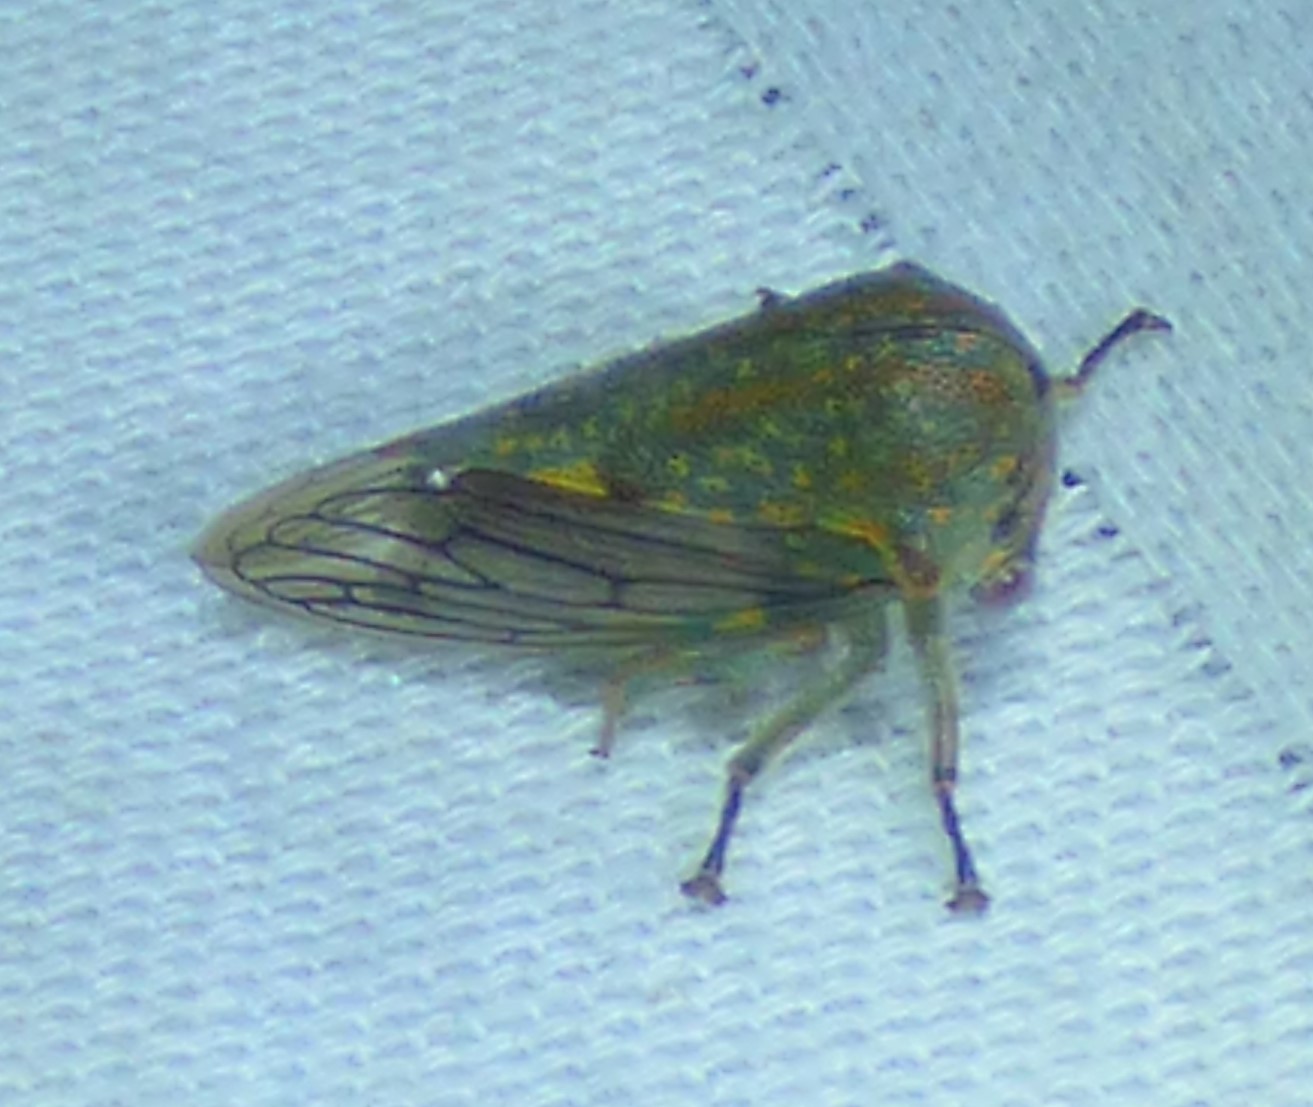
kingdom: Animalia
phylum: Arthropoda
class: Insecta
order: Hemiptera
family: Membracidae
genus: Platycotis
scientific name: Platycotis vittatus
